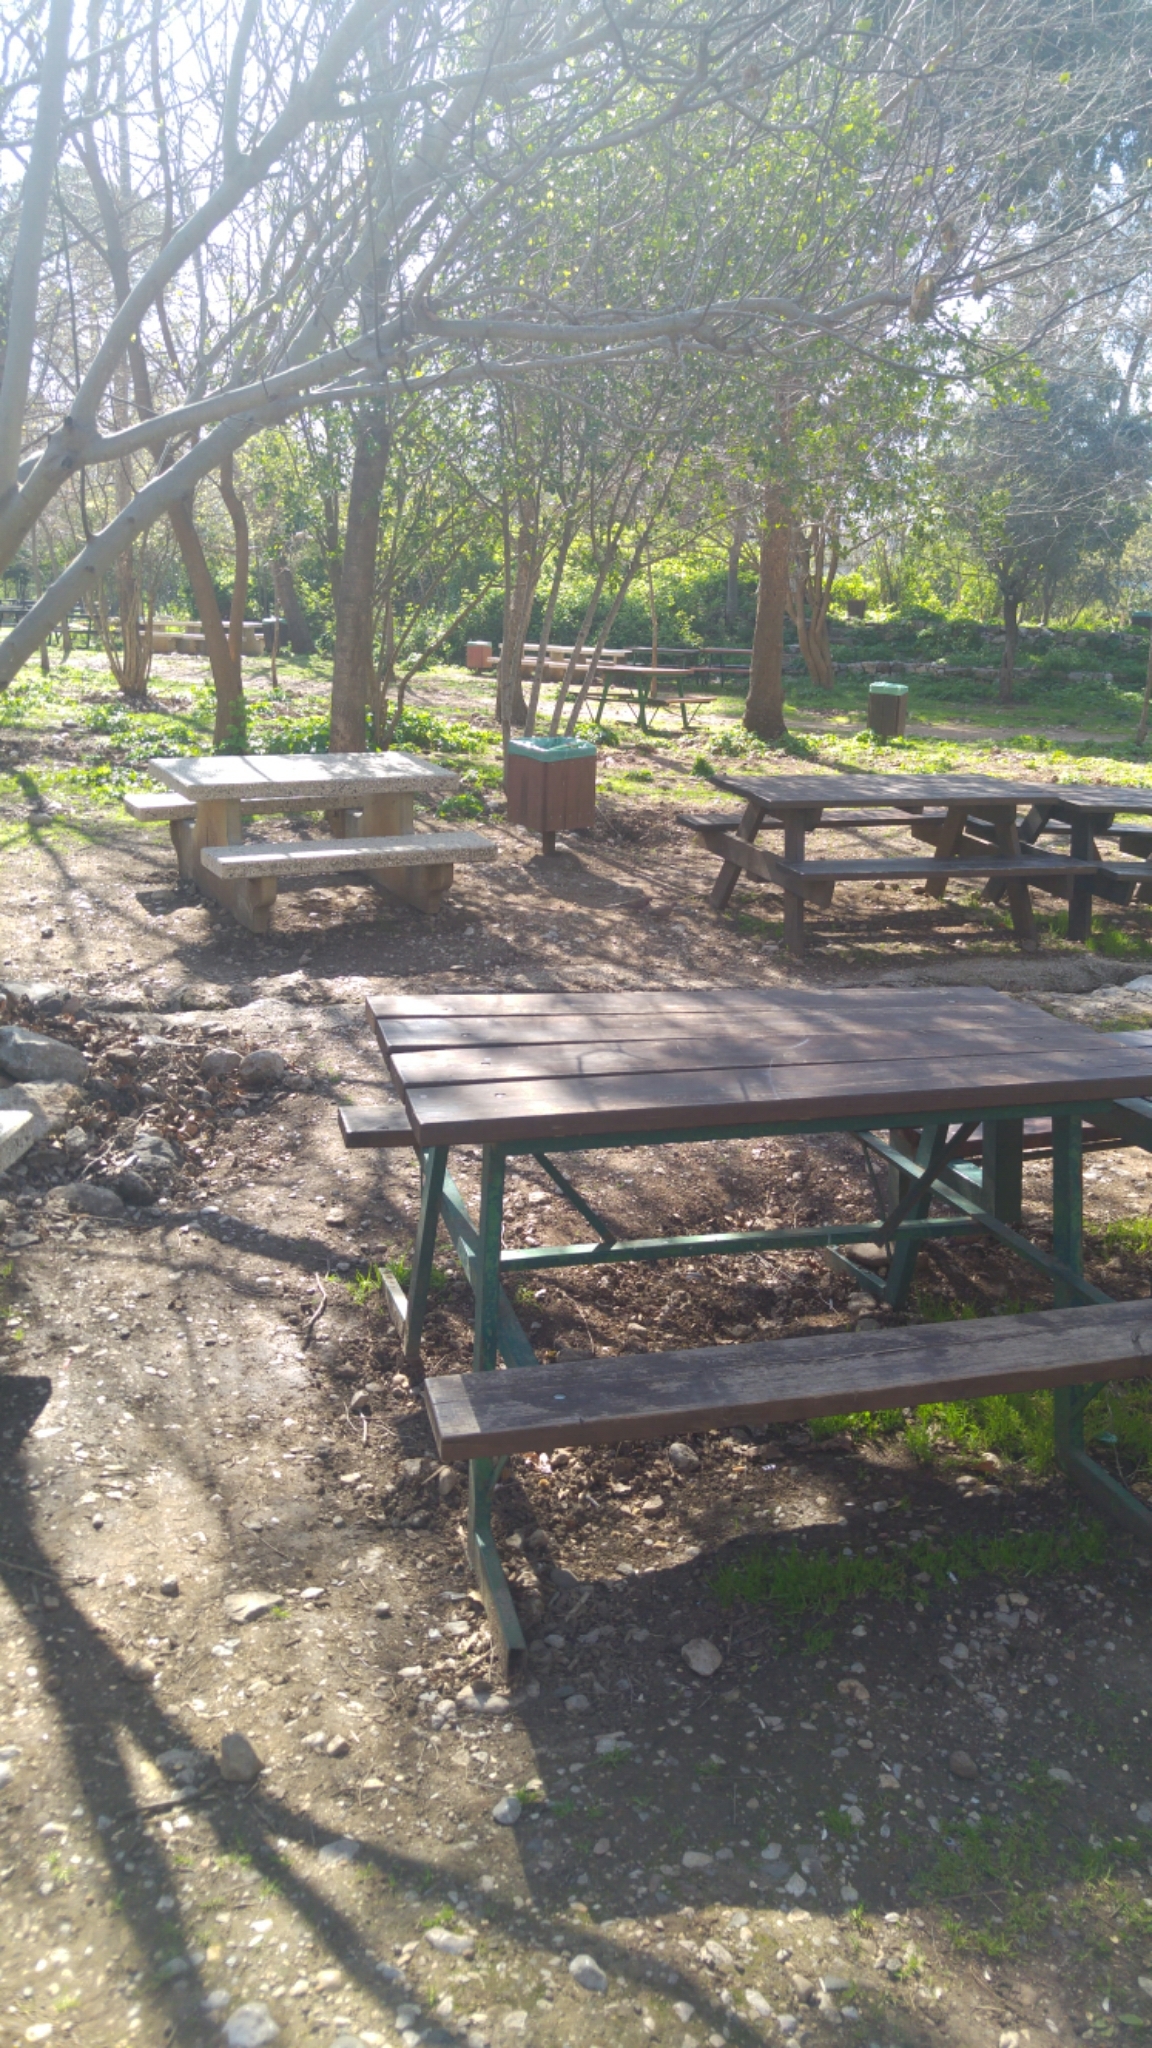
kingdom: Animalia
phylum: Chordata
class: Aves
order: Columbiformes
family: Columbidae
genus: Spilopelia
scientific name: Spilopelia senegalensis
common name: Laughing dove
